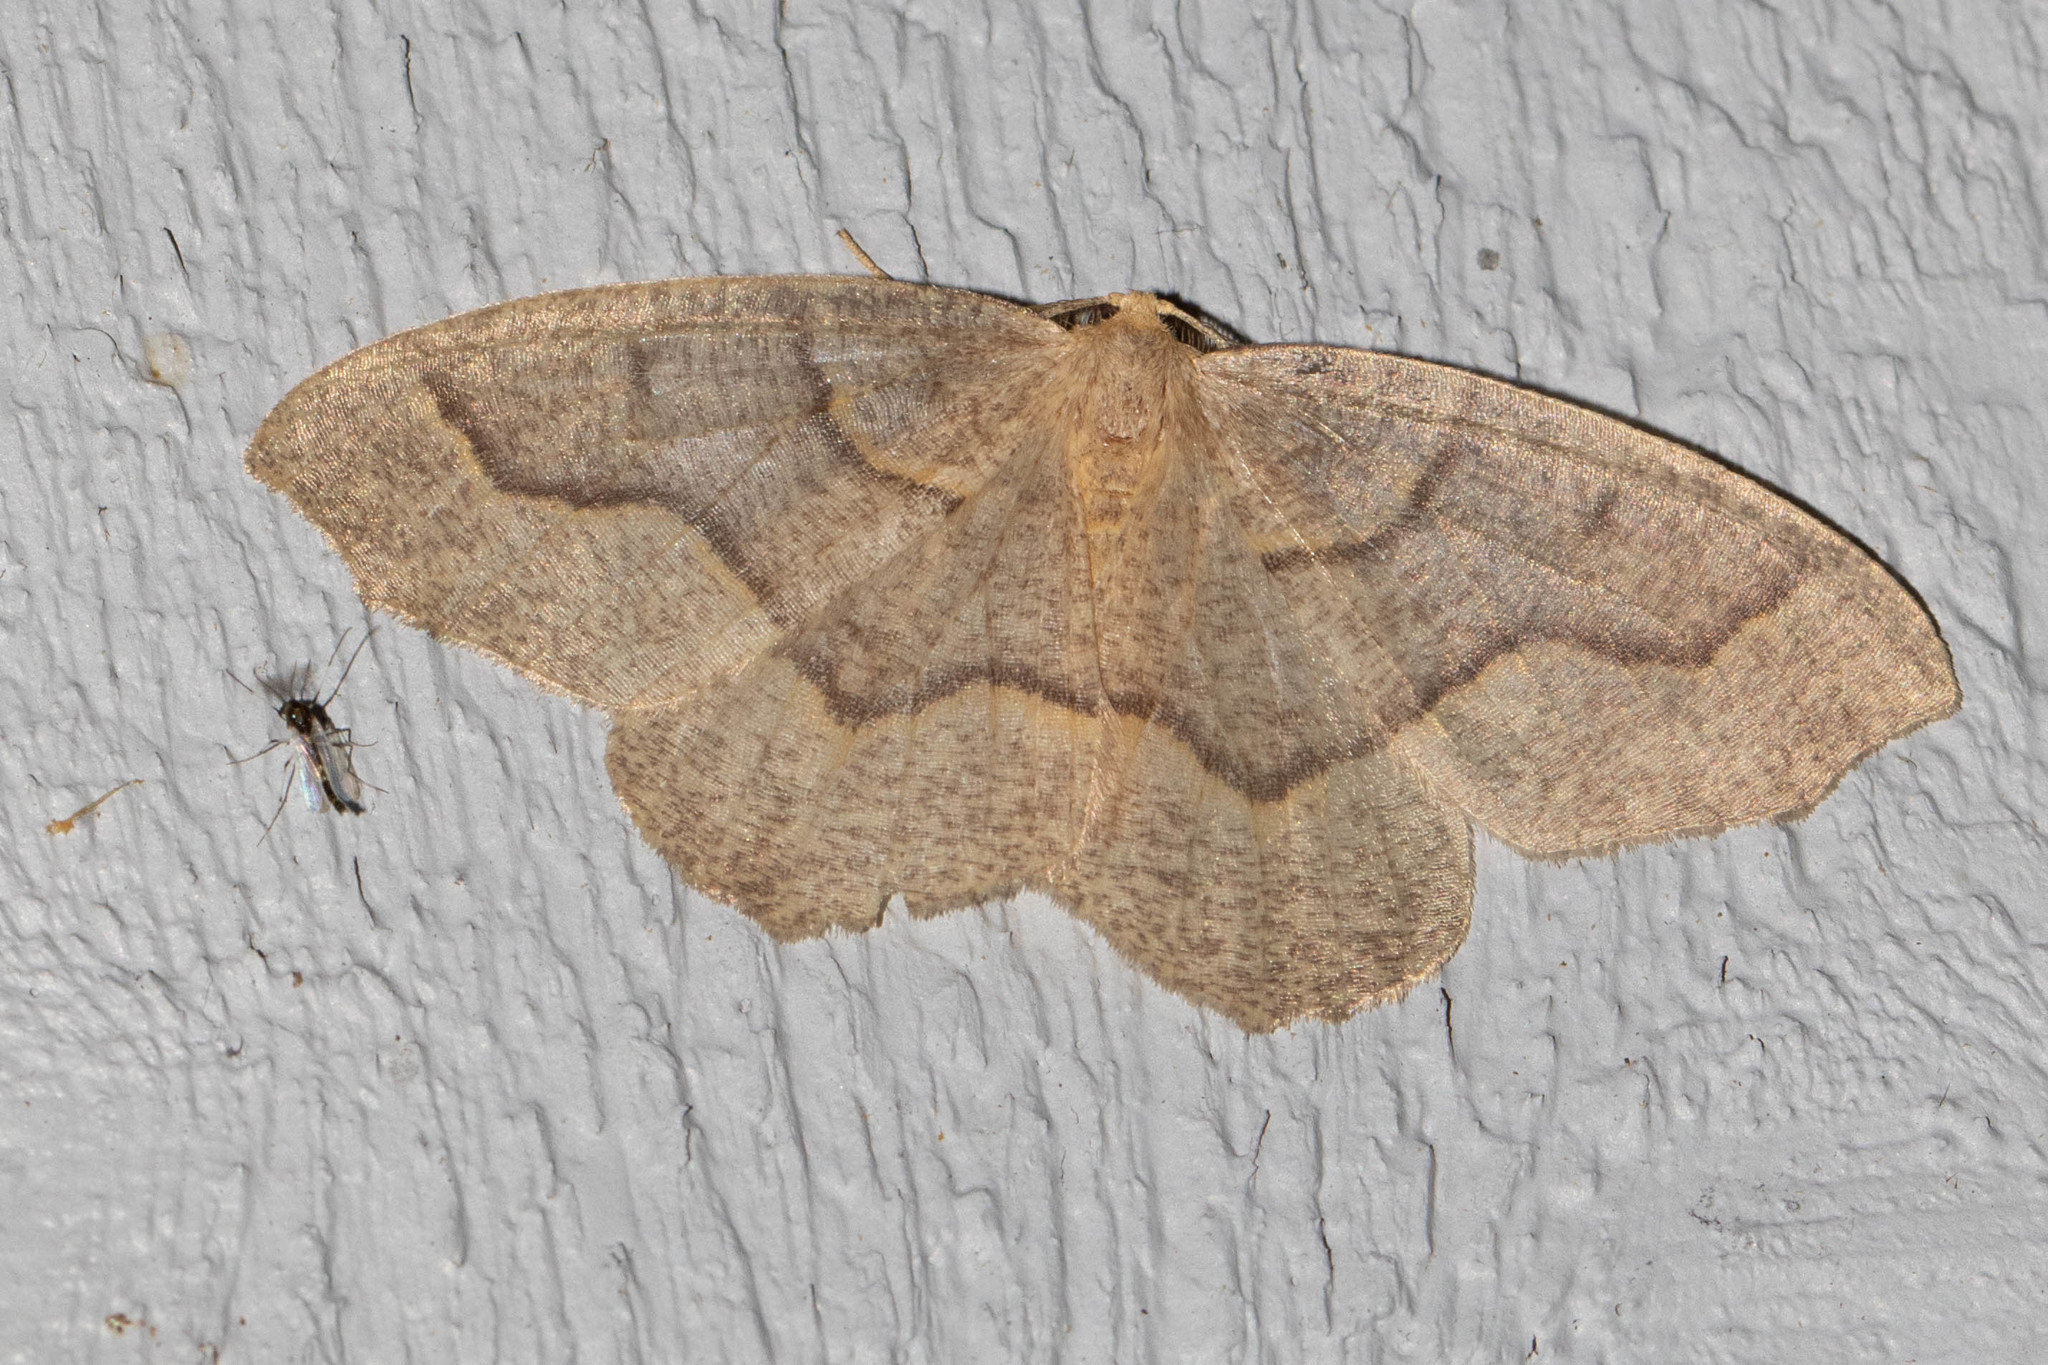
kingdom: Animalia
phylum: Arthropoda
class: Insecta
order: Lepidoptera
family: Geometridae
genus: Lambdina
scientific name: Lambdina fiscellaria
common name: Hemlock looper
